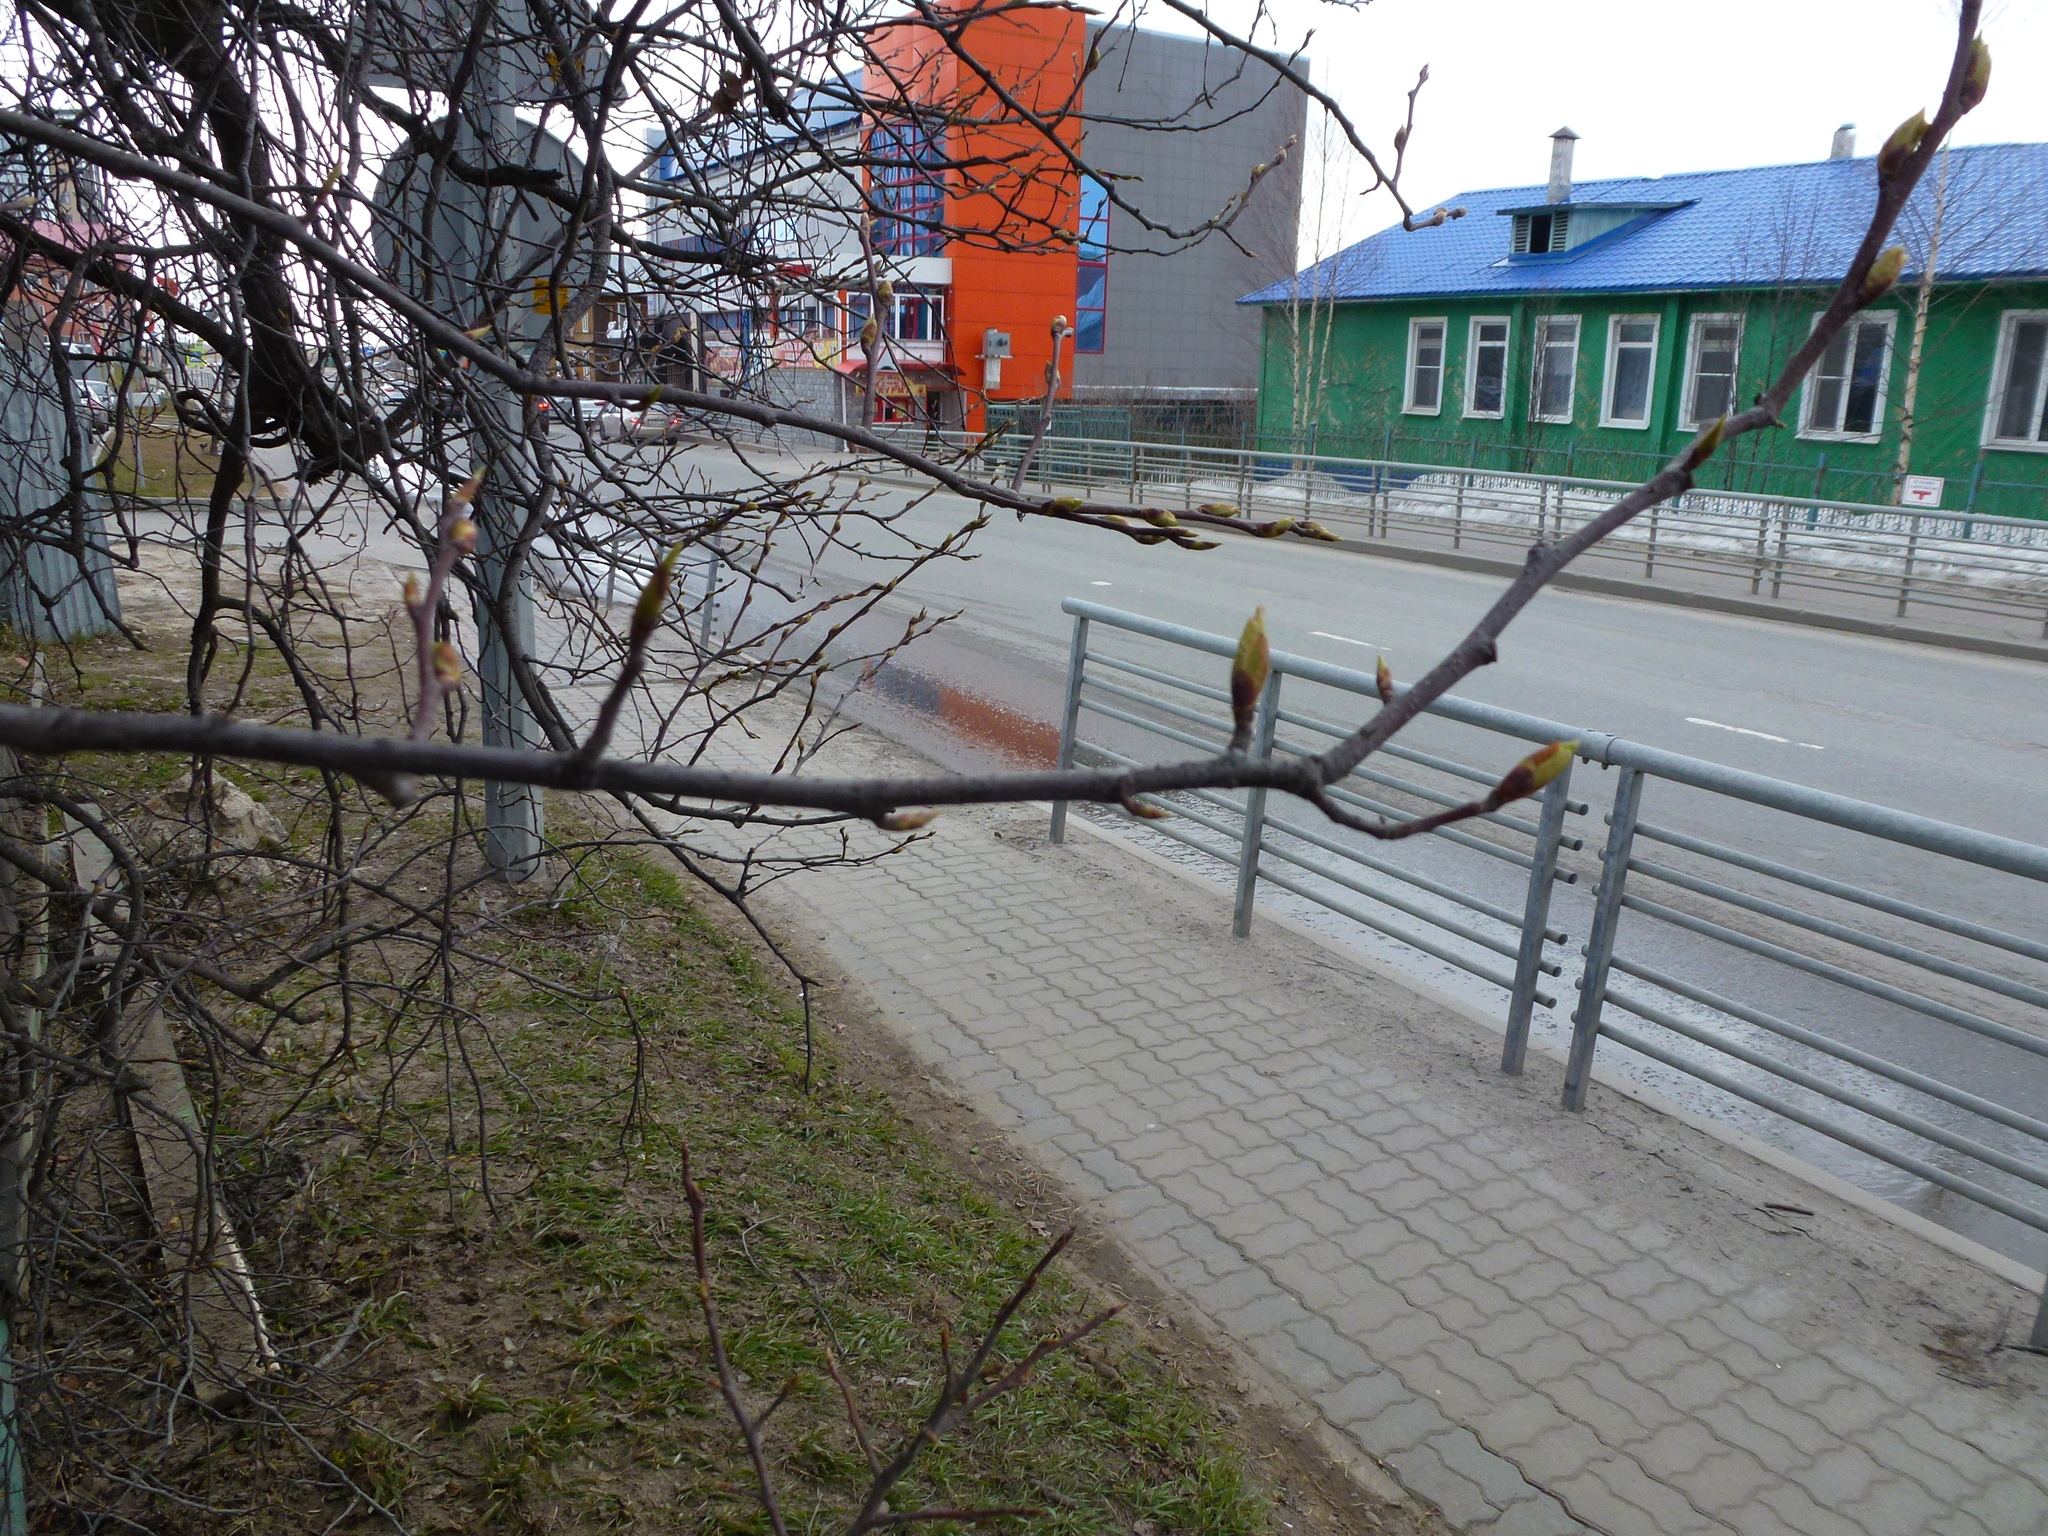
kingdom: Plantae
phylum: Tracheophyta
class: Magnoliopsida
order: Rosales
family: Rosaceae
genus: Prunus
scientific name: Prunus padus
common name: Bird cherry
